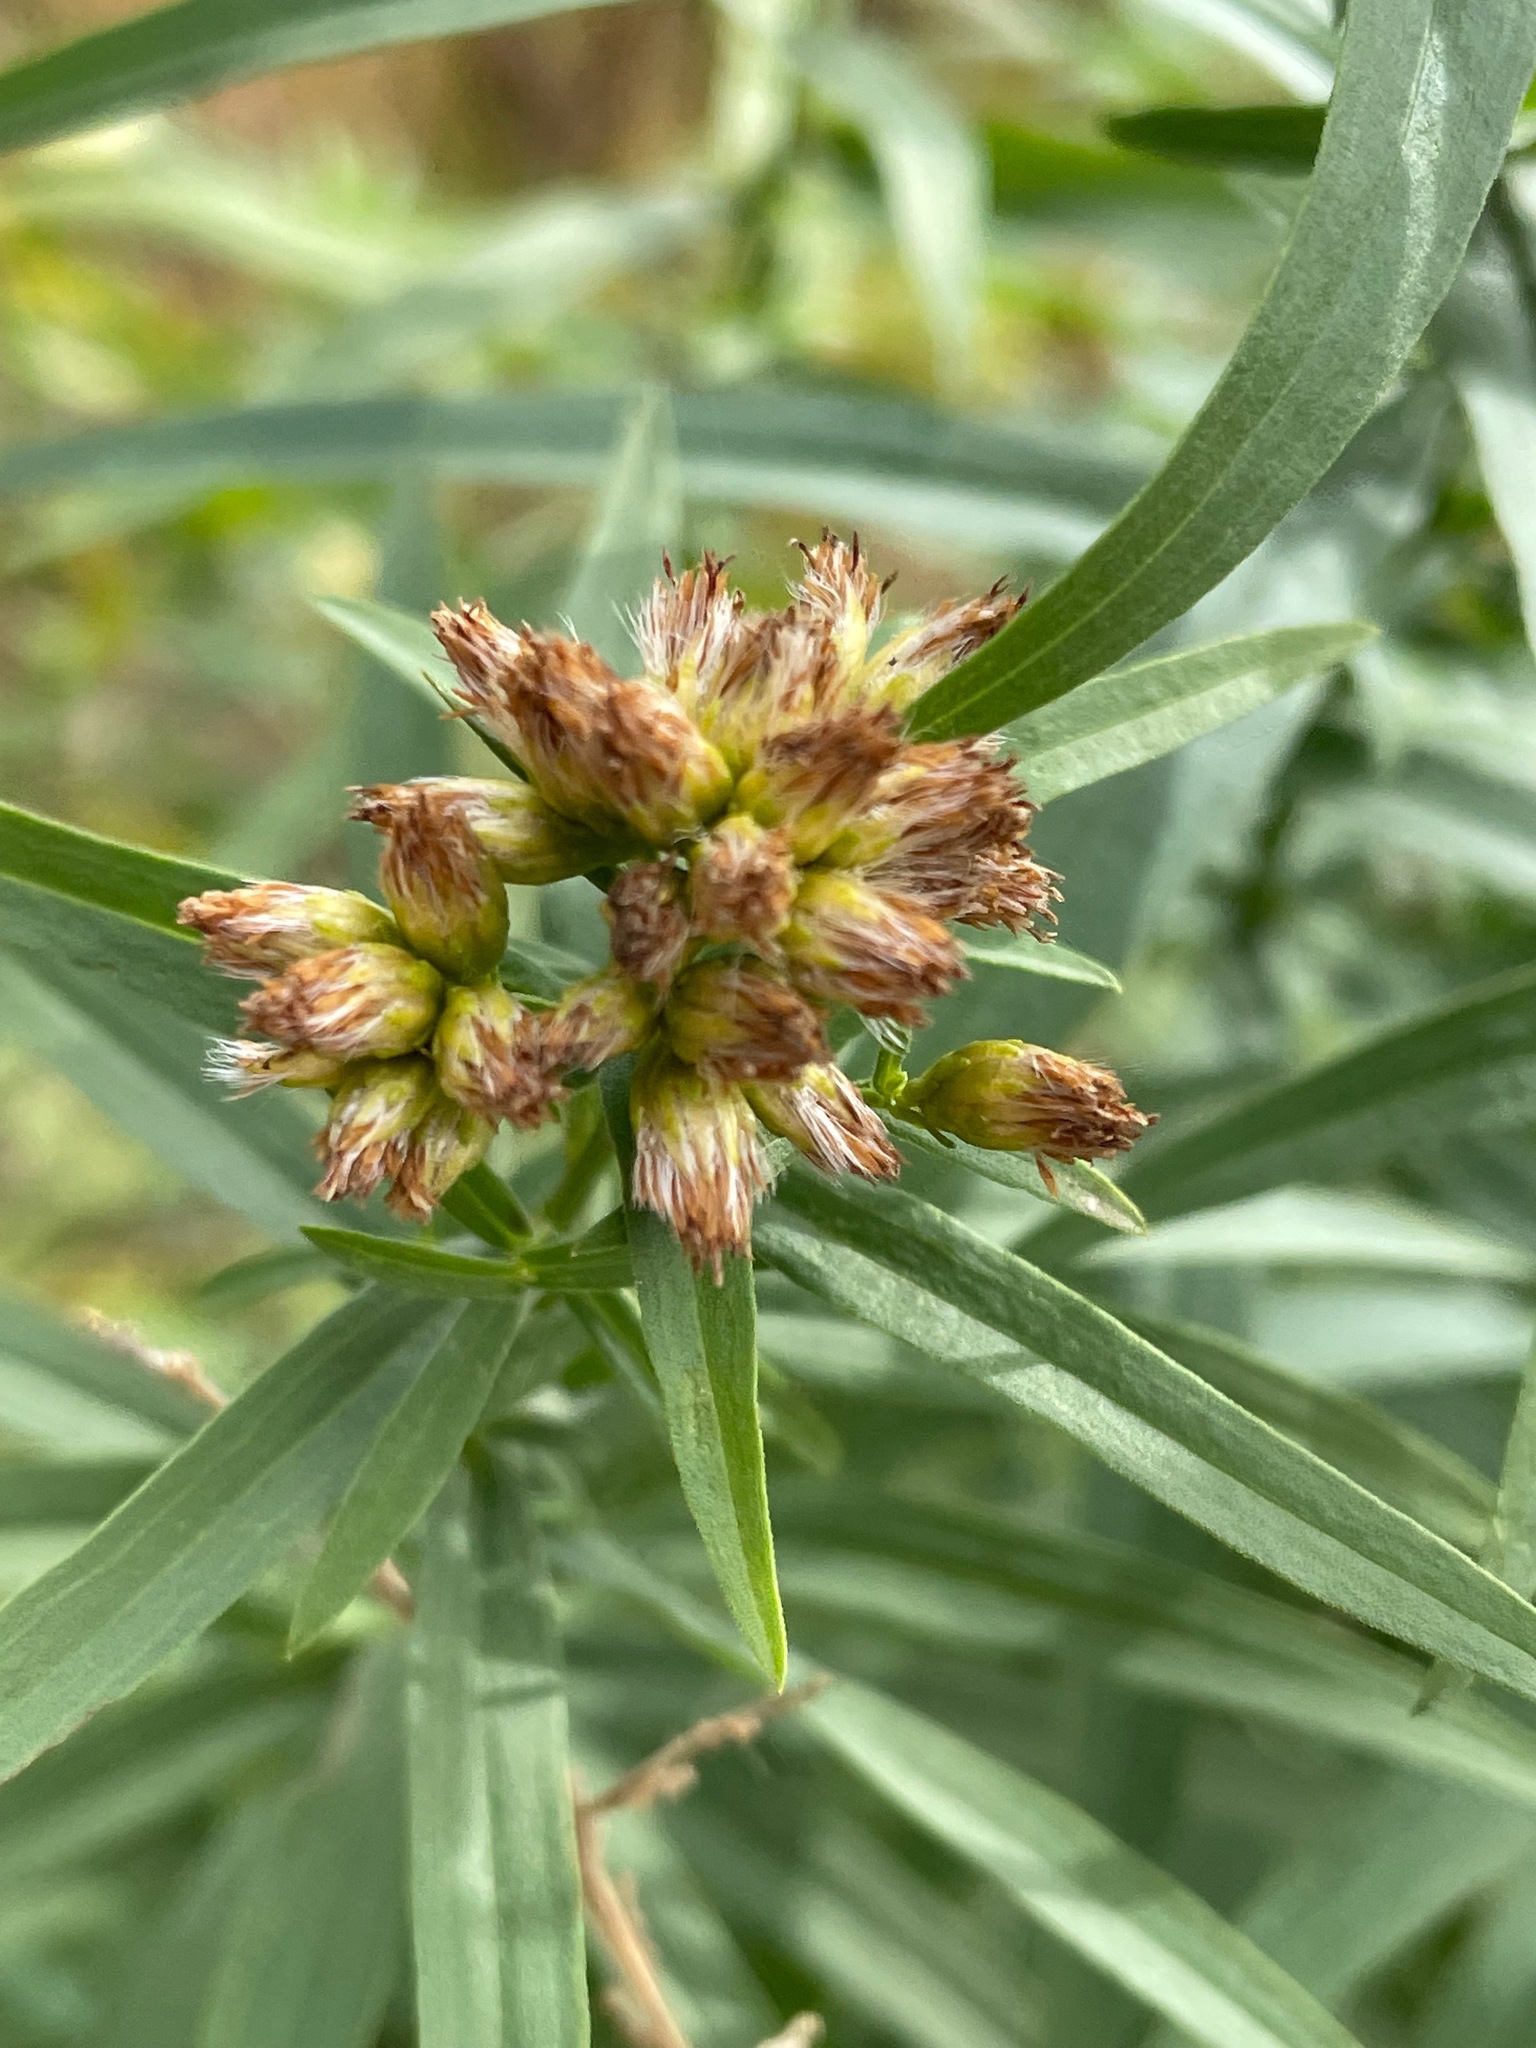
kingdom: Plantae
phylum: Tracheophyta
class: Magnoliopsida
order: Asterales
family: Asteraceae
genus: Euthamia
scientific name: Euthamia graminifolia
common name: Common goldentop
